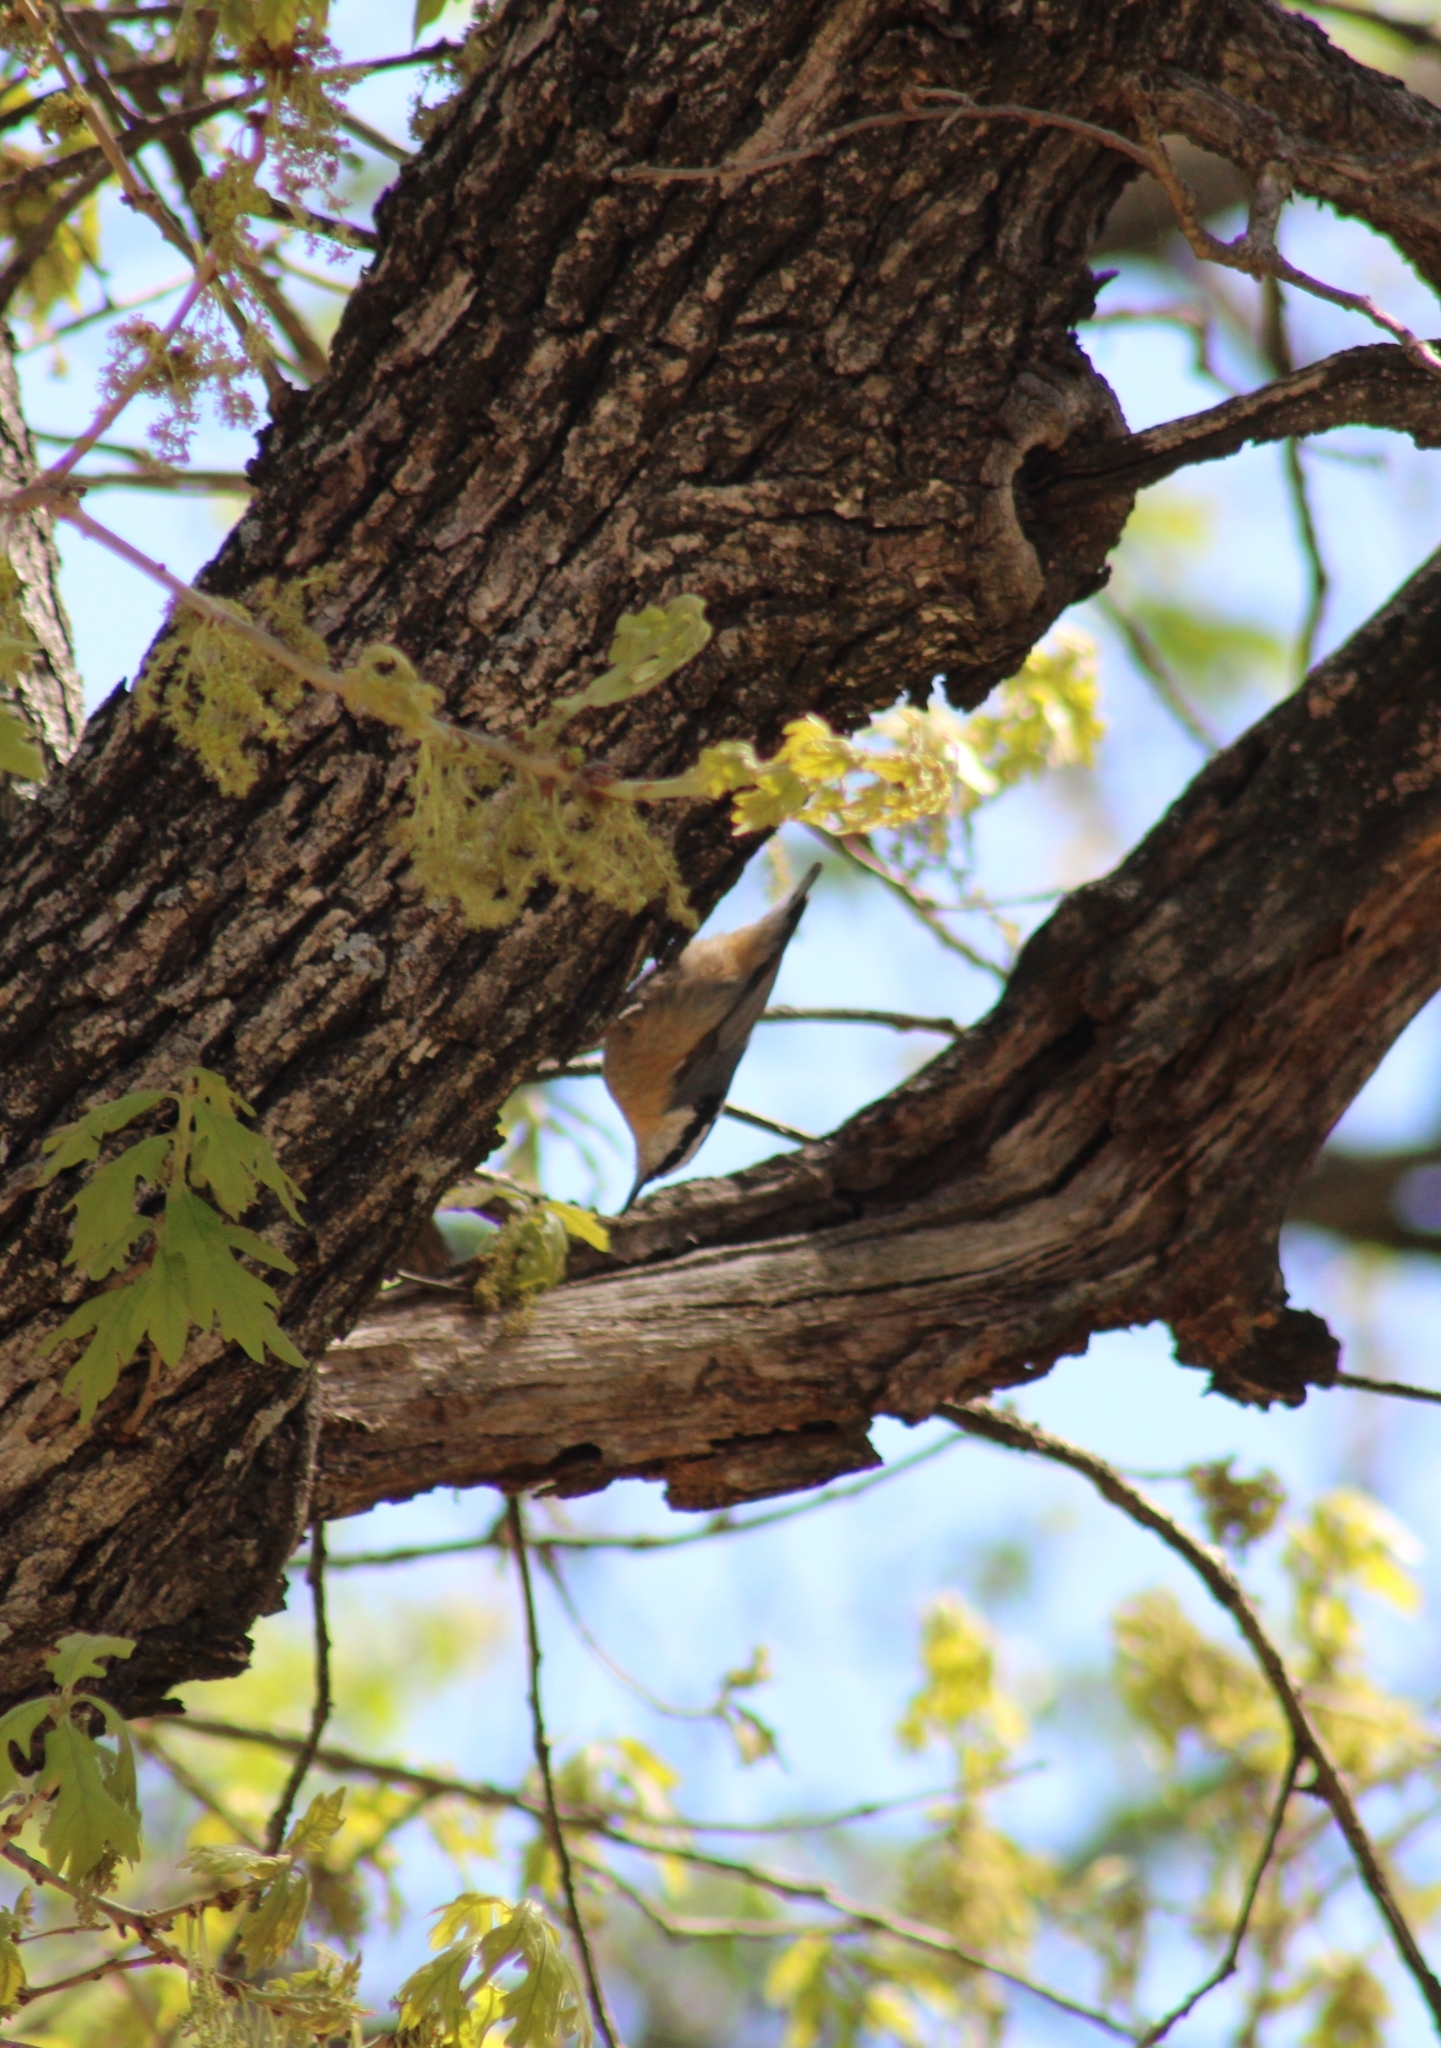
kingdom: Animalia
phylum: Chordata
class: Aves
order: Passeriformes
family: Sittidae
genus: Sitta
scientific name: Sitta canadensis
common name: Red-breasted nuthatch
